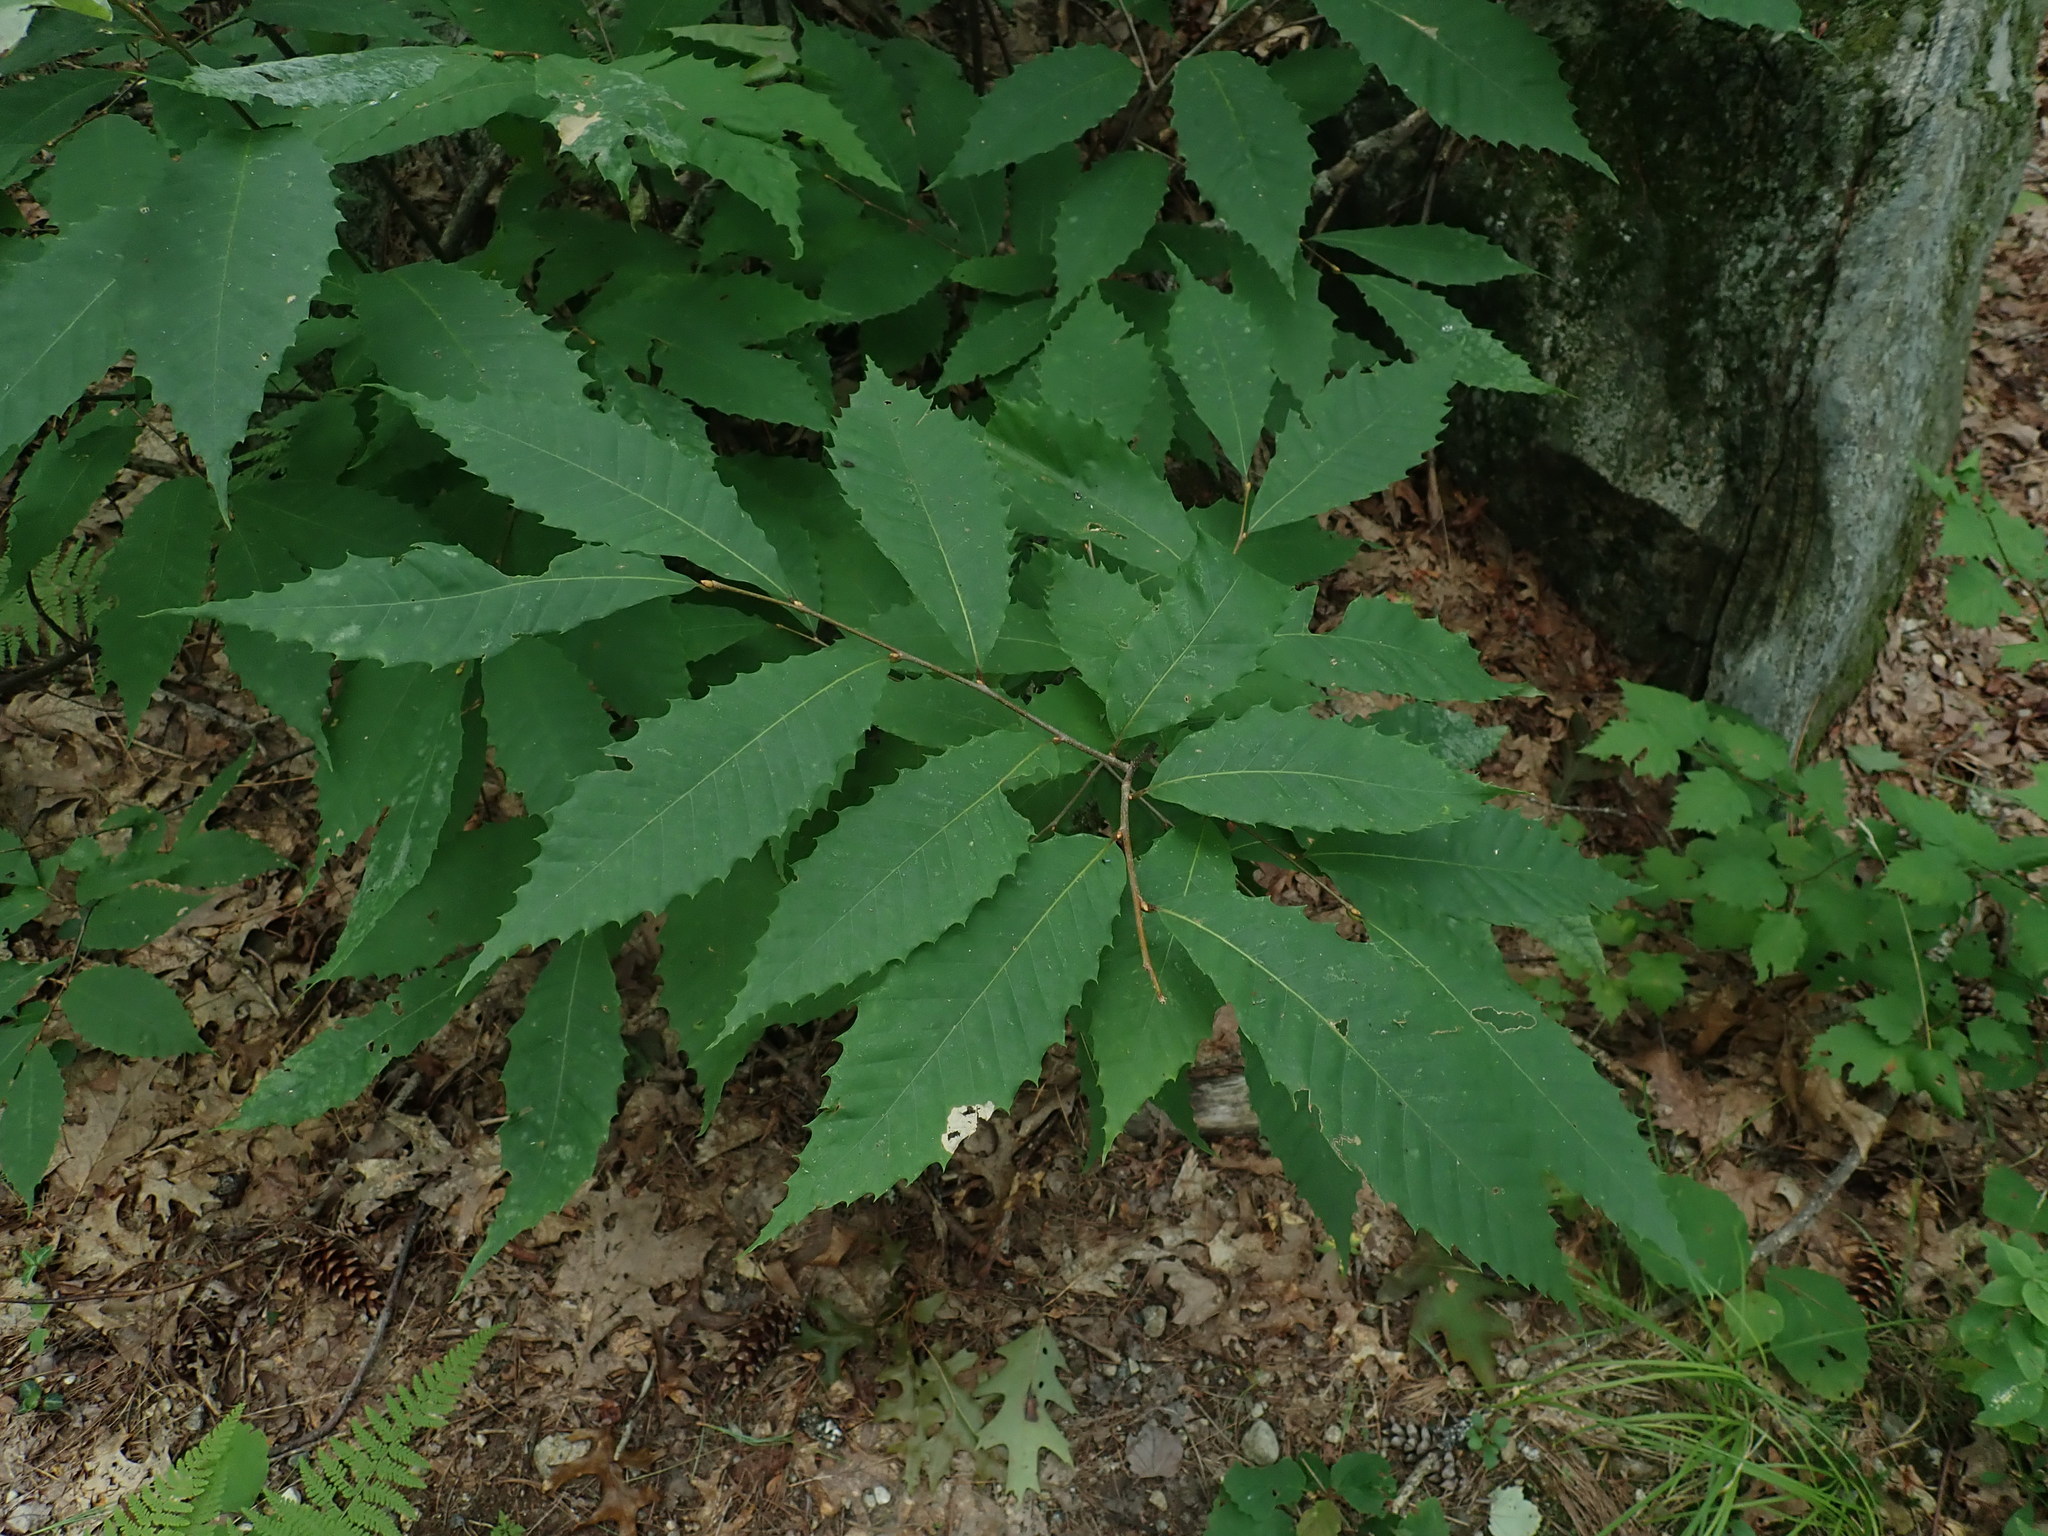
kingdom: Plantae
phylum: Tracheophyta
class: Magnoliopsida
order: Fagales
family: Fagaceae
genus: Castanea
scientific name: Castanea dentata
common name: American chestnut
